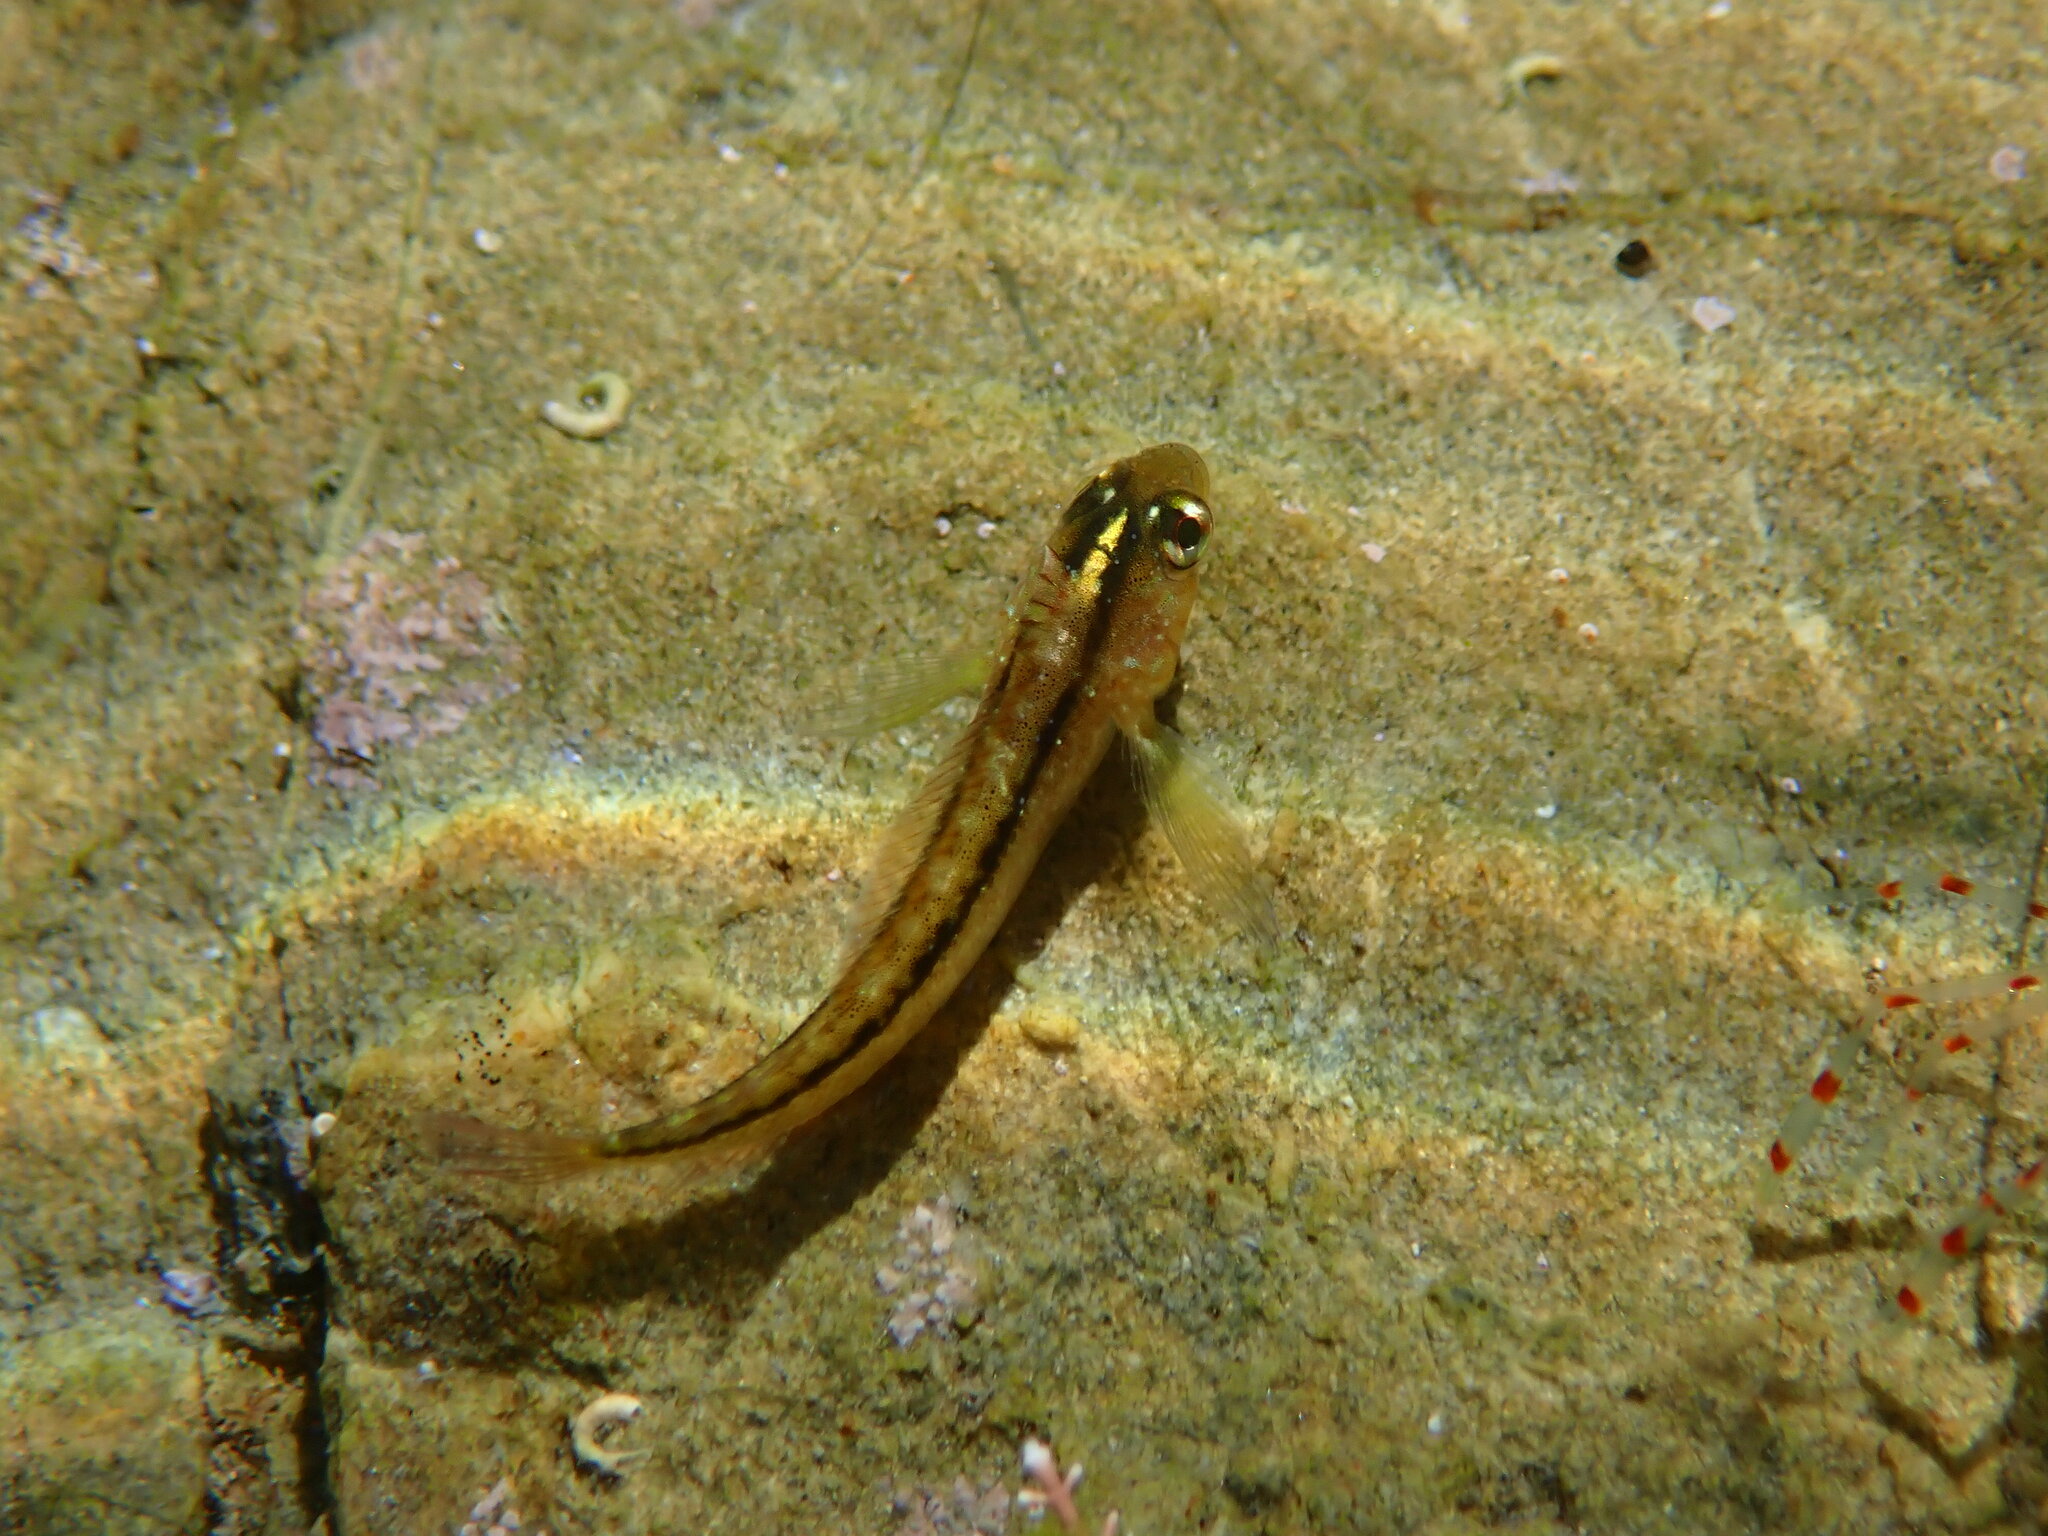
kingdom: Animalia
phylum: Chordata
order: Perciformes
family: Tripterygiidae
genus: Forsterygion
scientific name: Forsterygion lapillum
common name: Common triplefin
